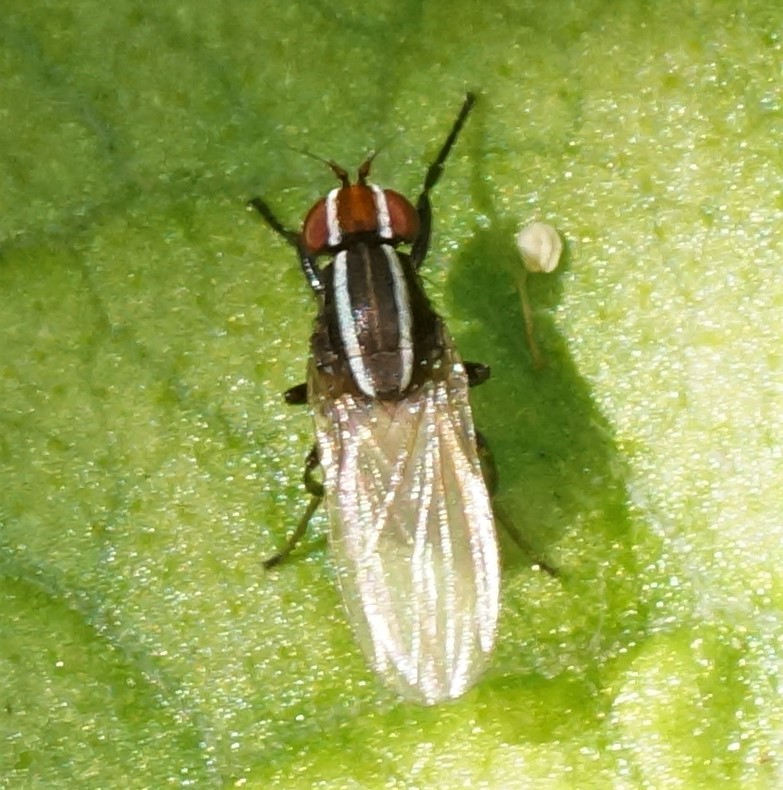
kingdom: Animalia
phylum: Arthropoda
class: Insecta
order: Diptera
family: Lauxaniidae
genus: Poecilohetaerus
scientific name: Poecilohetaerus schineri
